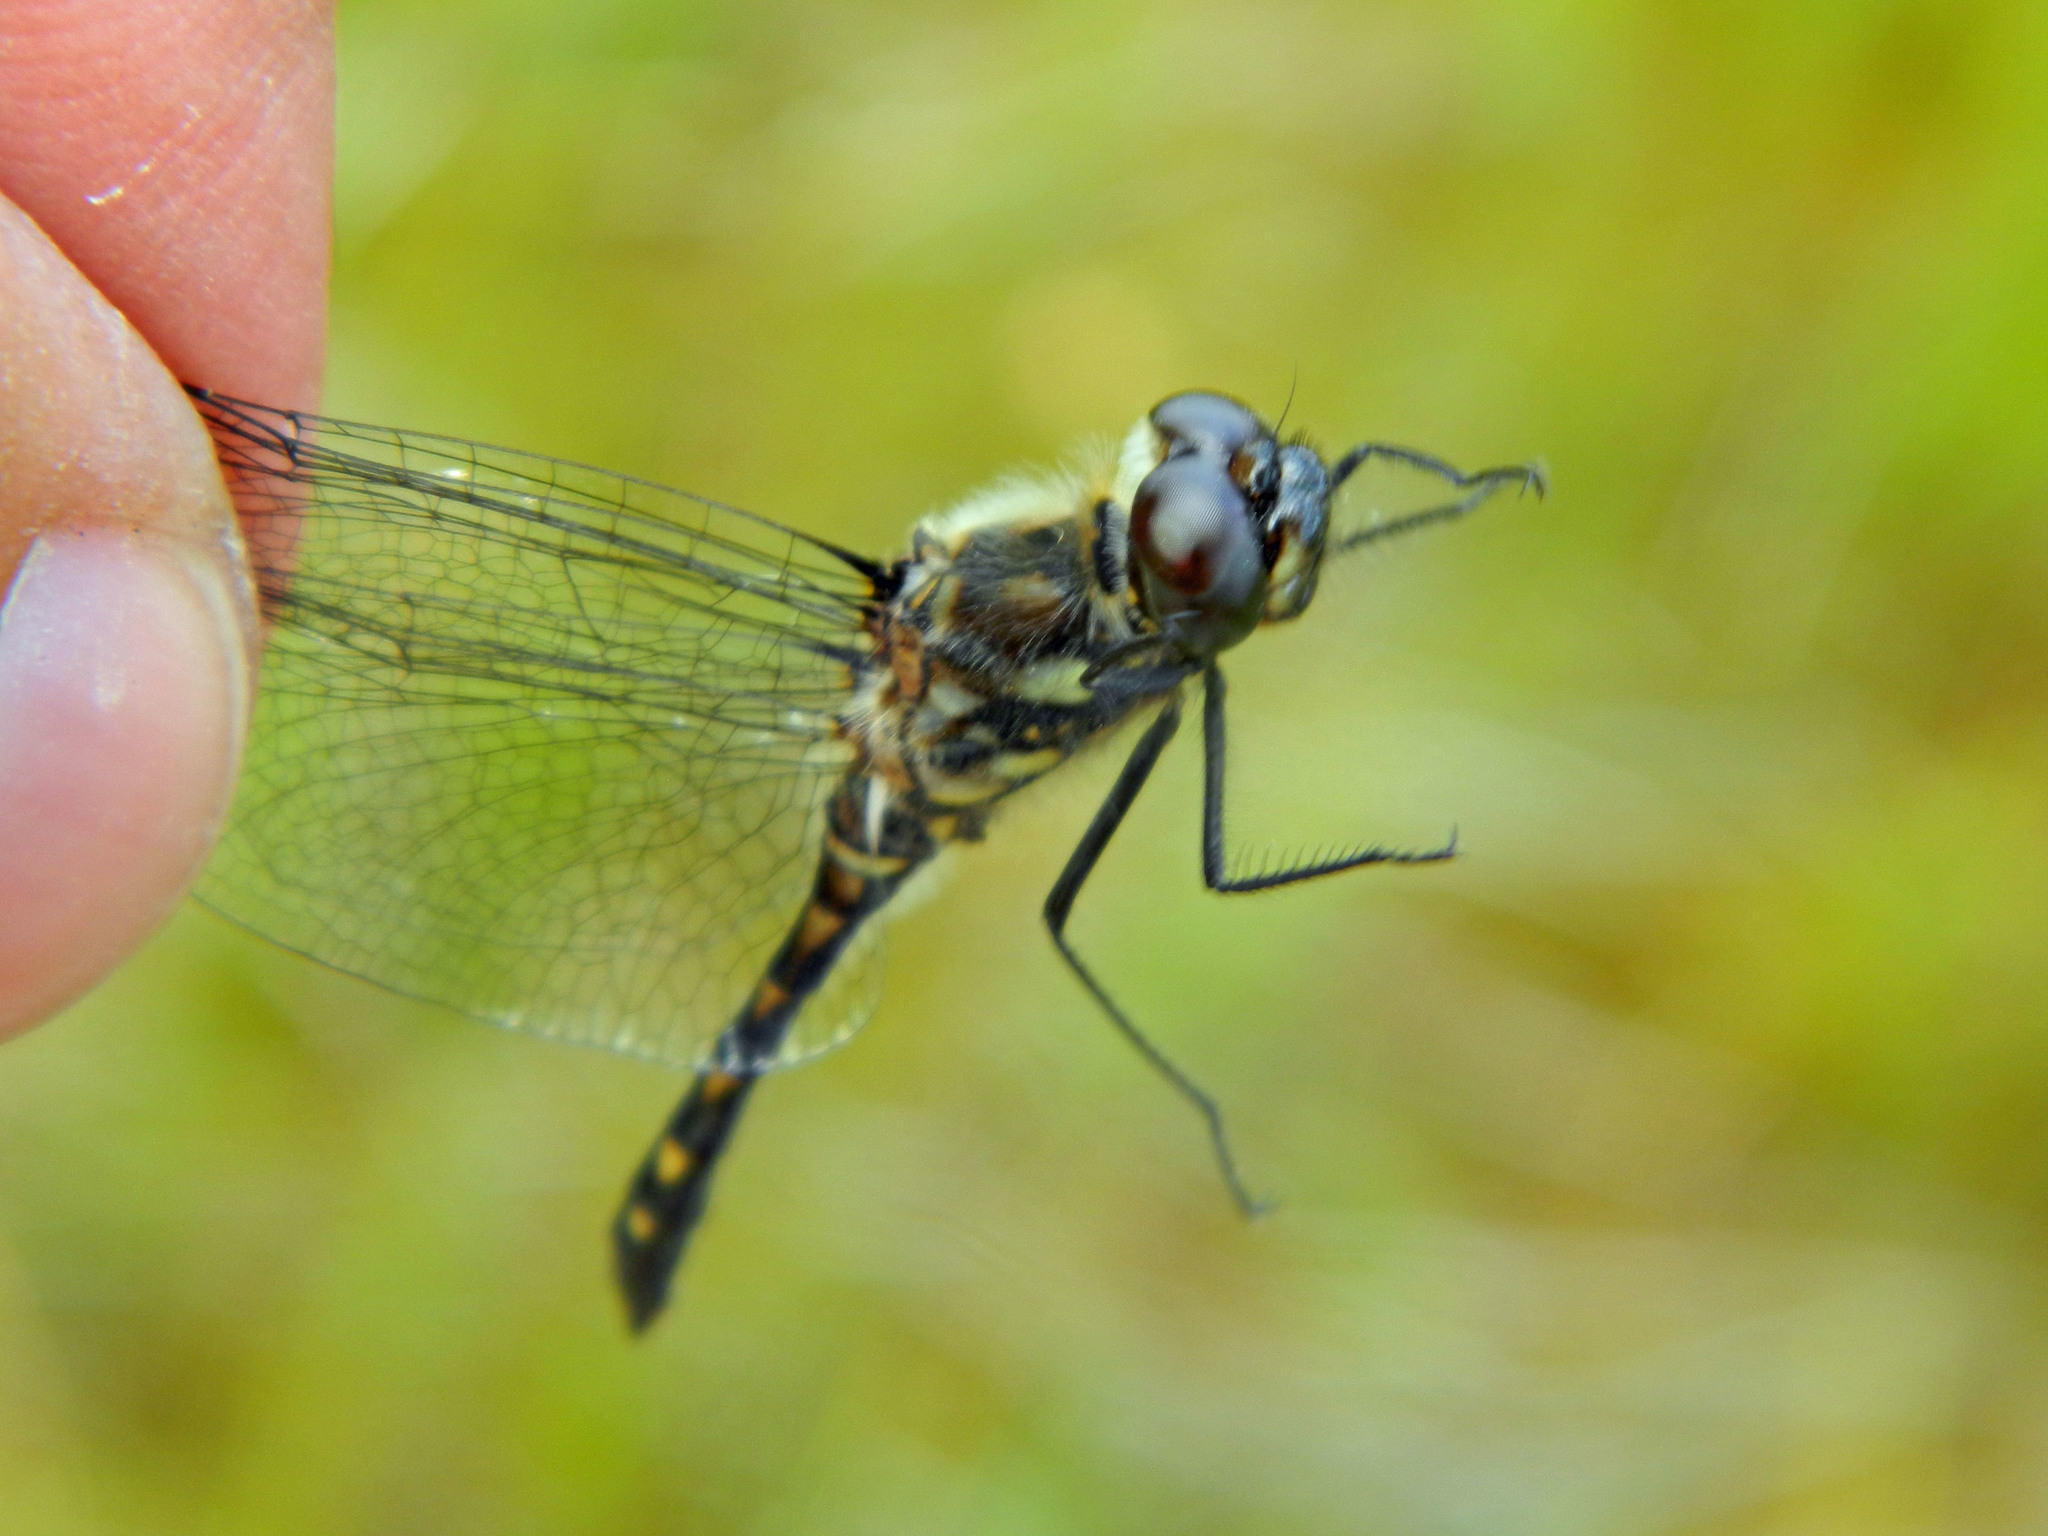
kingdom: Animalia
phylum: Arthropoda
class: Insecta
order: Odonata
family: Libellulidae
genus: Sympetrum
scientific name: Sympetrum danae
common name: Black darter
